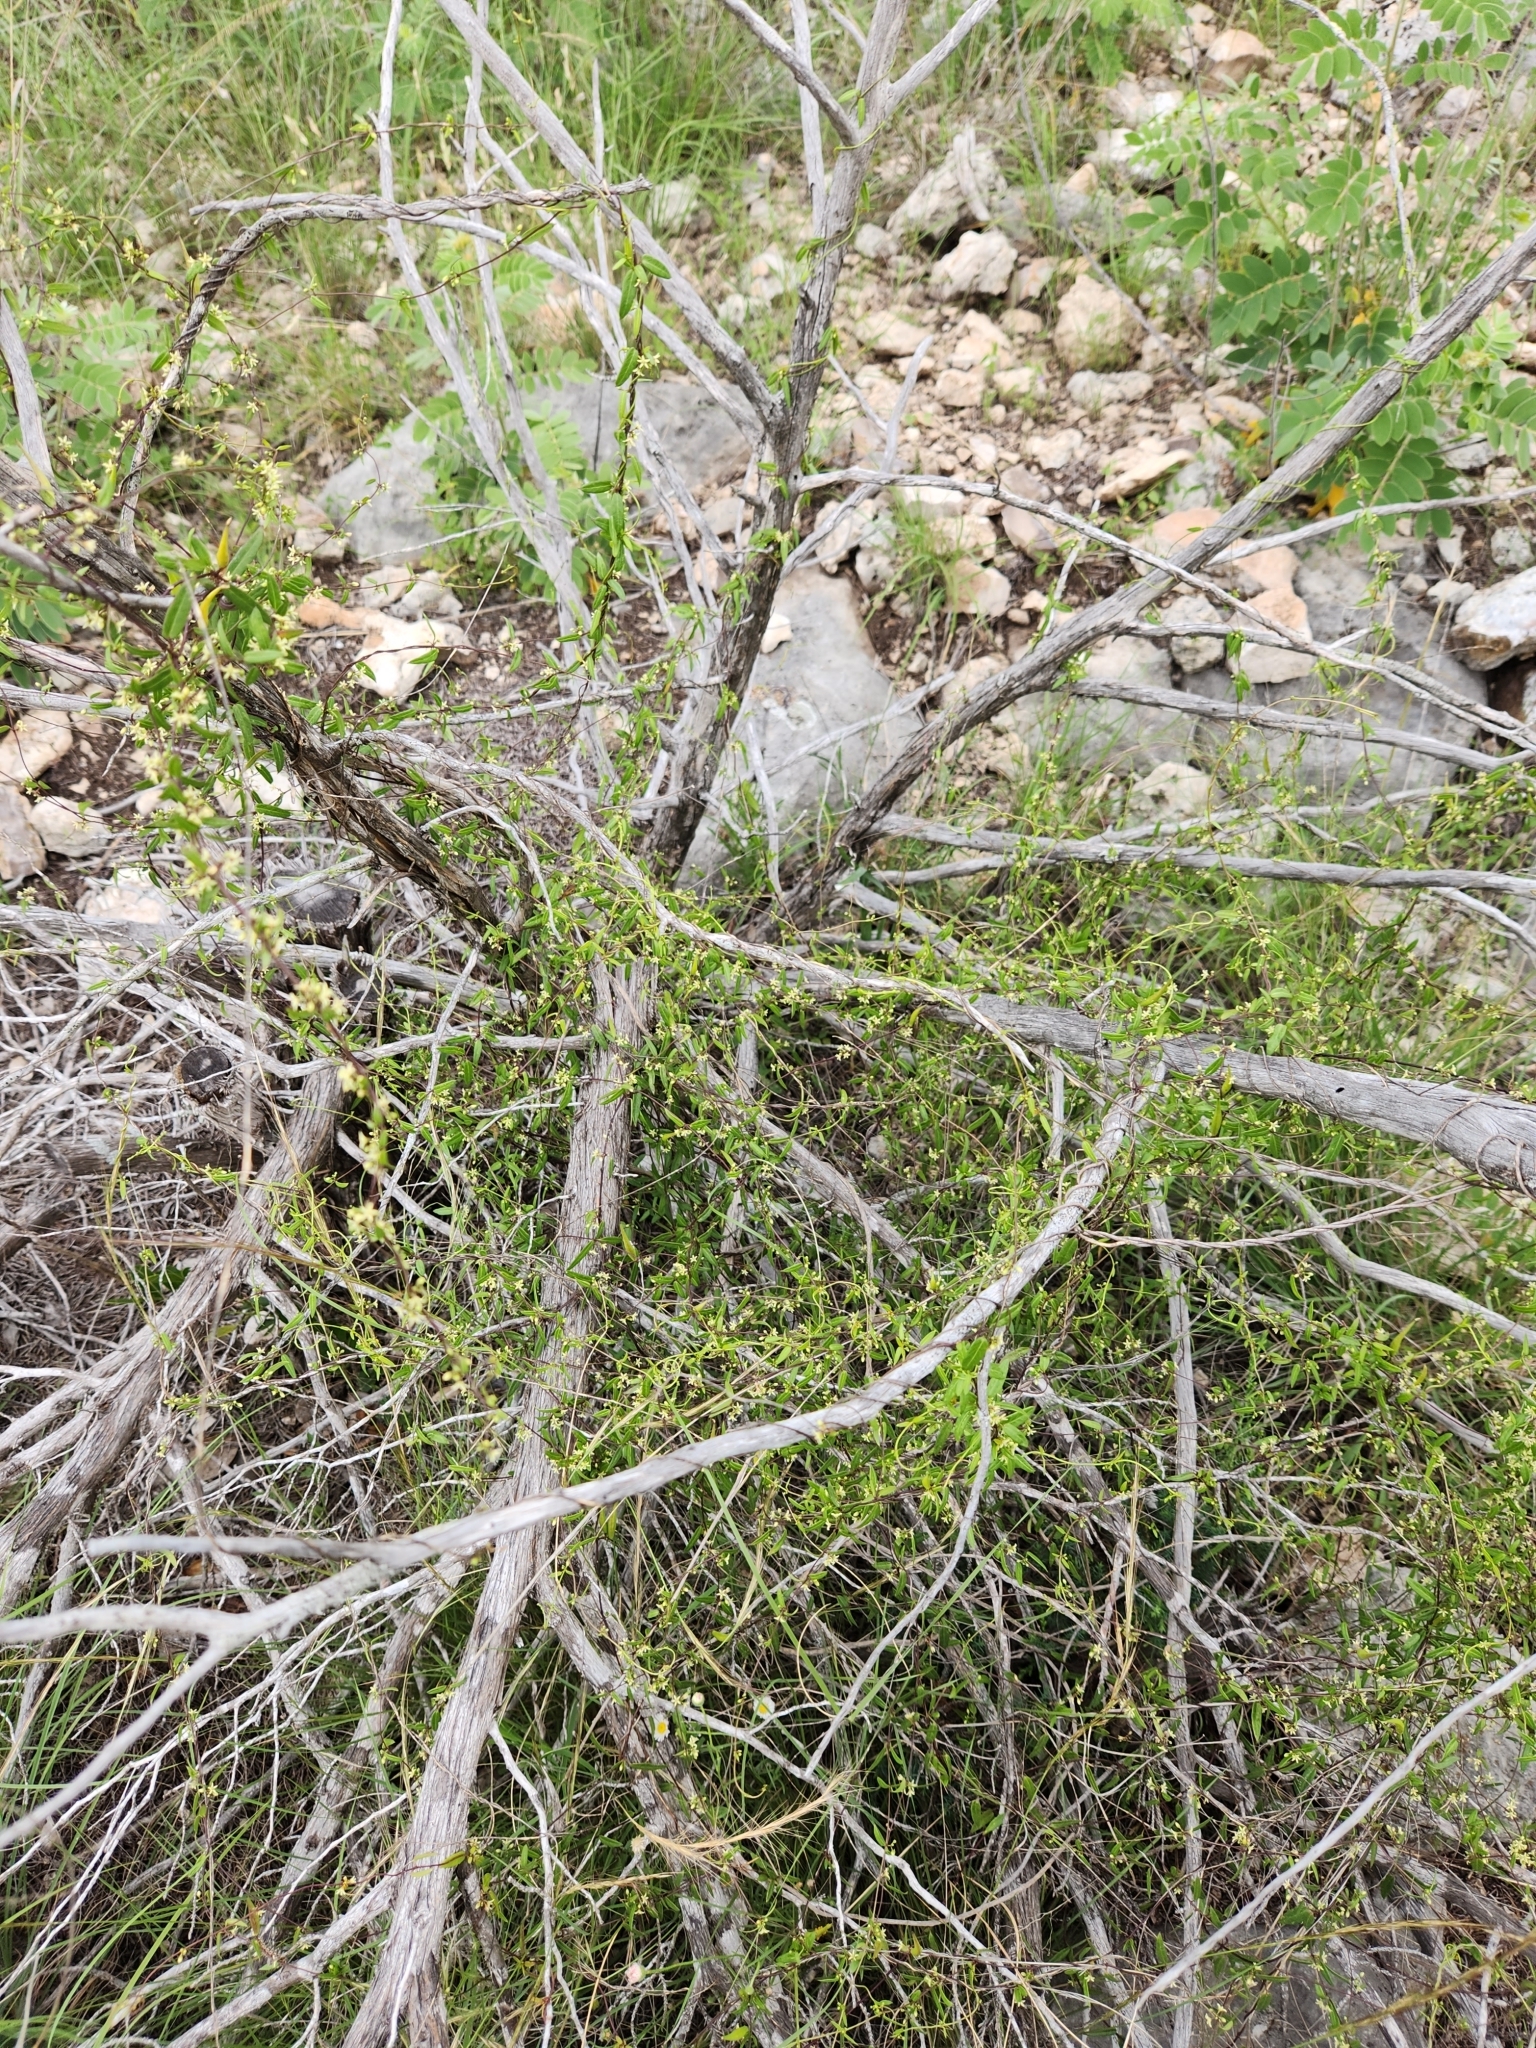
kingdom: Plantae
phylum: Tracheophyta
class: Magnoliopsida
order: Gentianales
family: Apocynaceae
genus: Metastelma
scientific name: Metastelma palmeri
